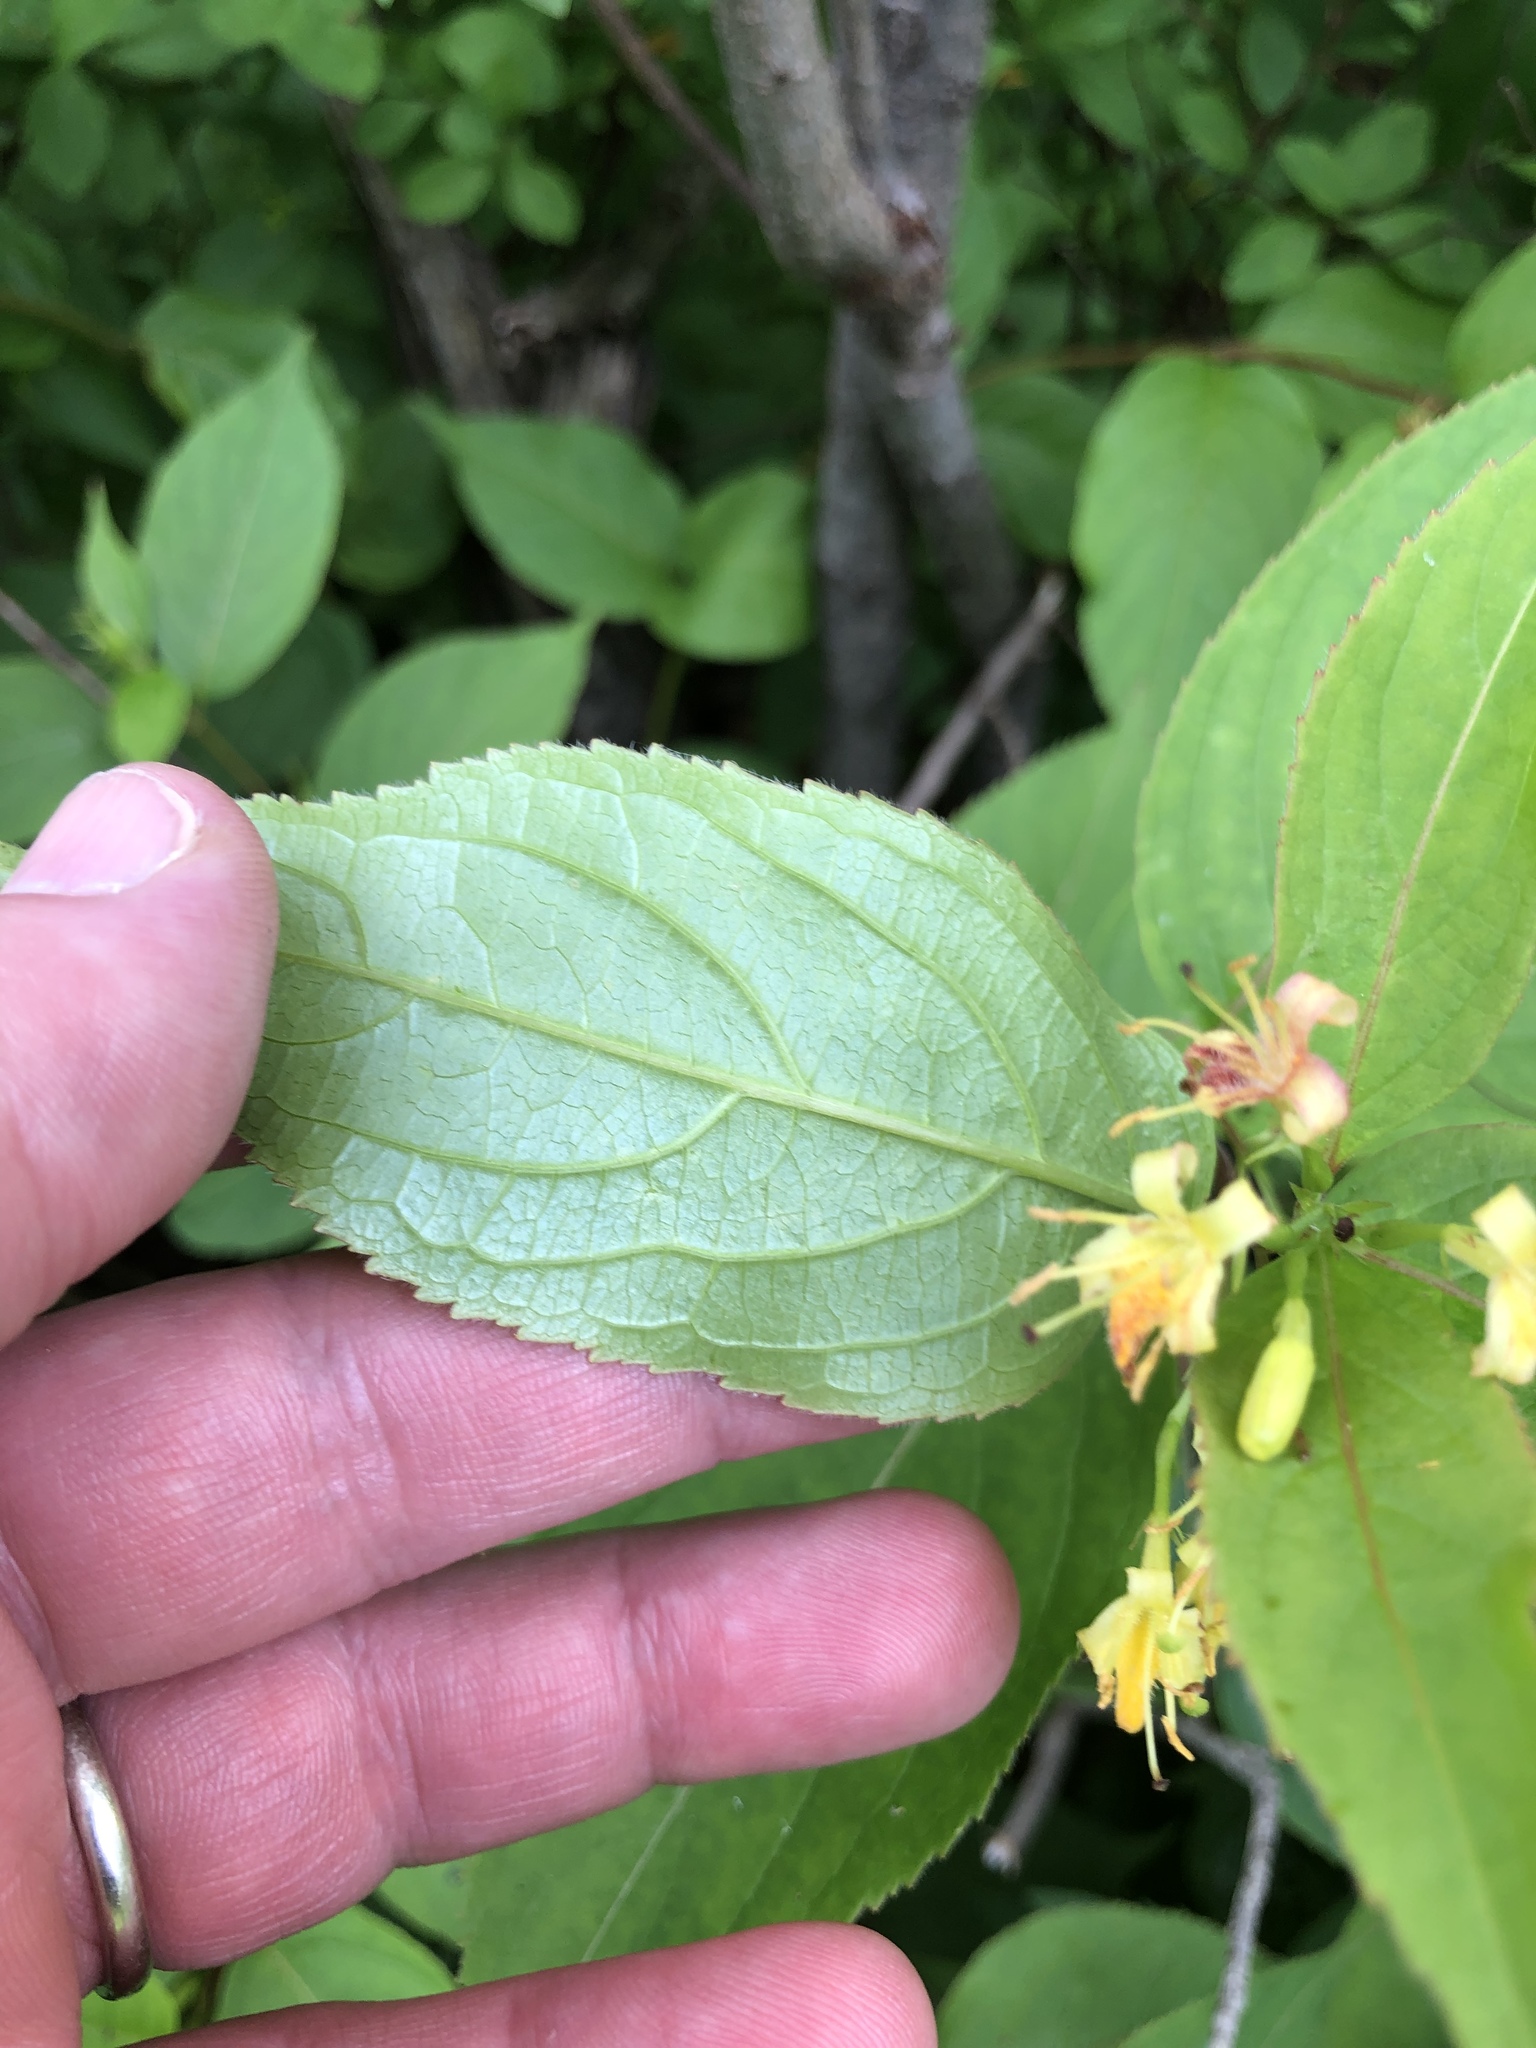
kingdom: Plantae
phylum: Tracheophyta
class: Magnoliopsida
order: Dipsacales
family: Caprifoliaceae
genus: Diervilla
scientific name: Diervilla lonicera
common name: Bush-honeysuckle
